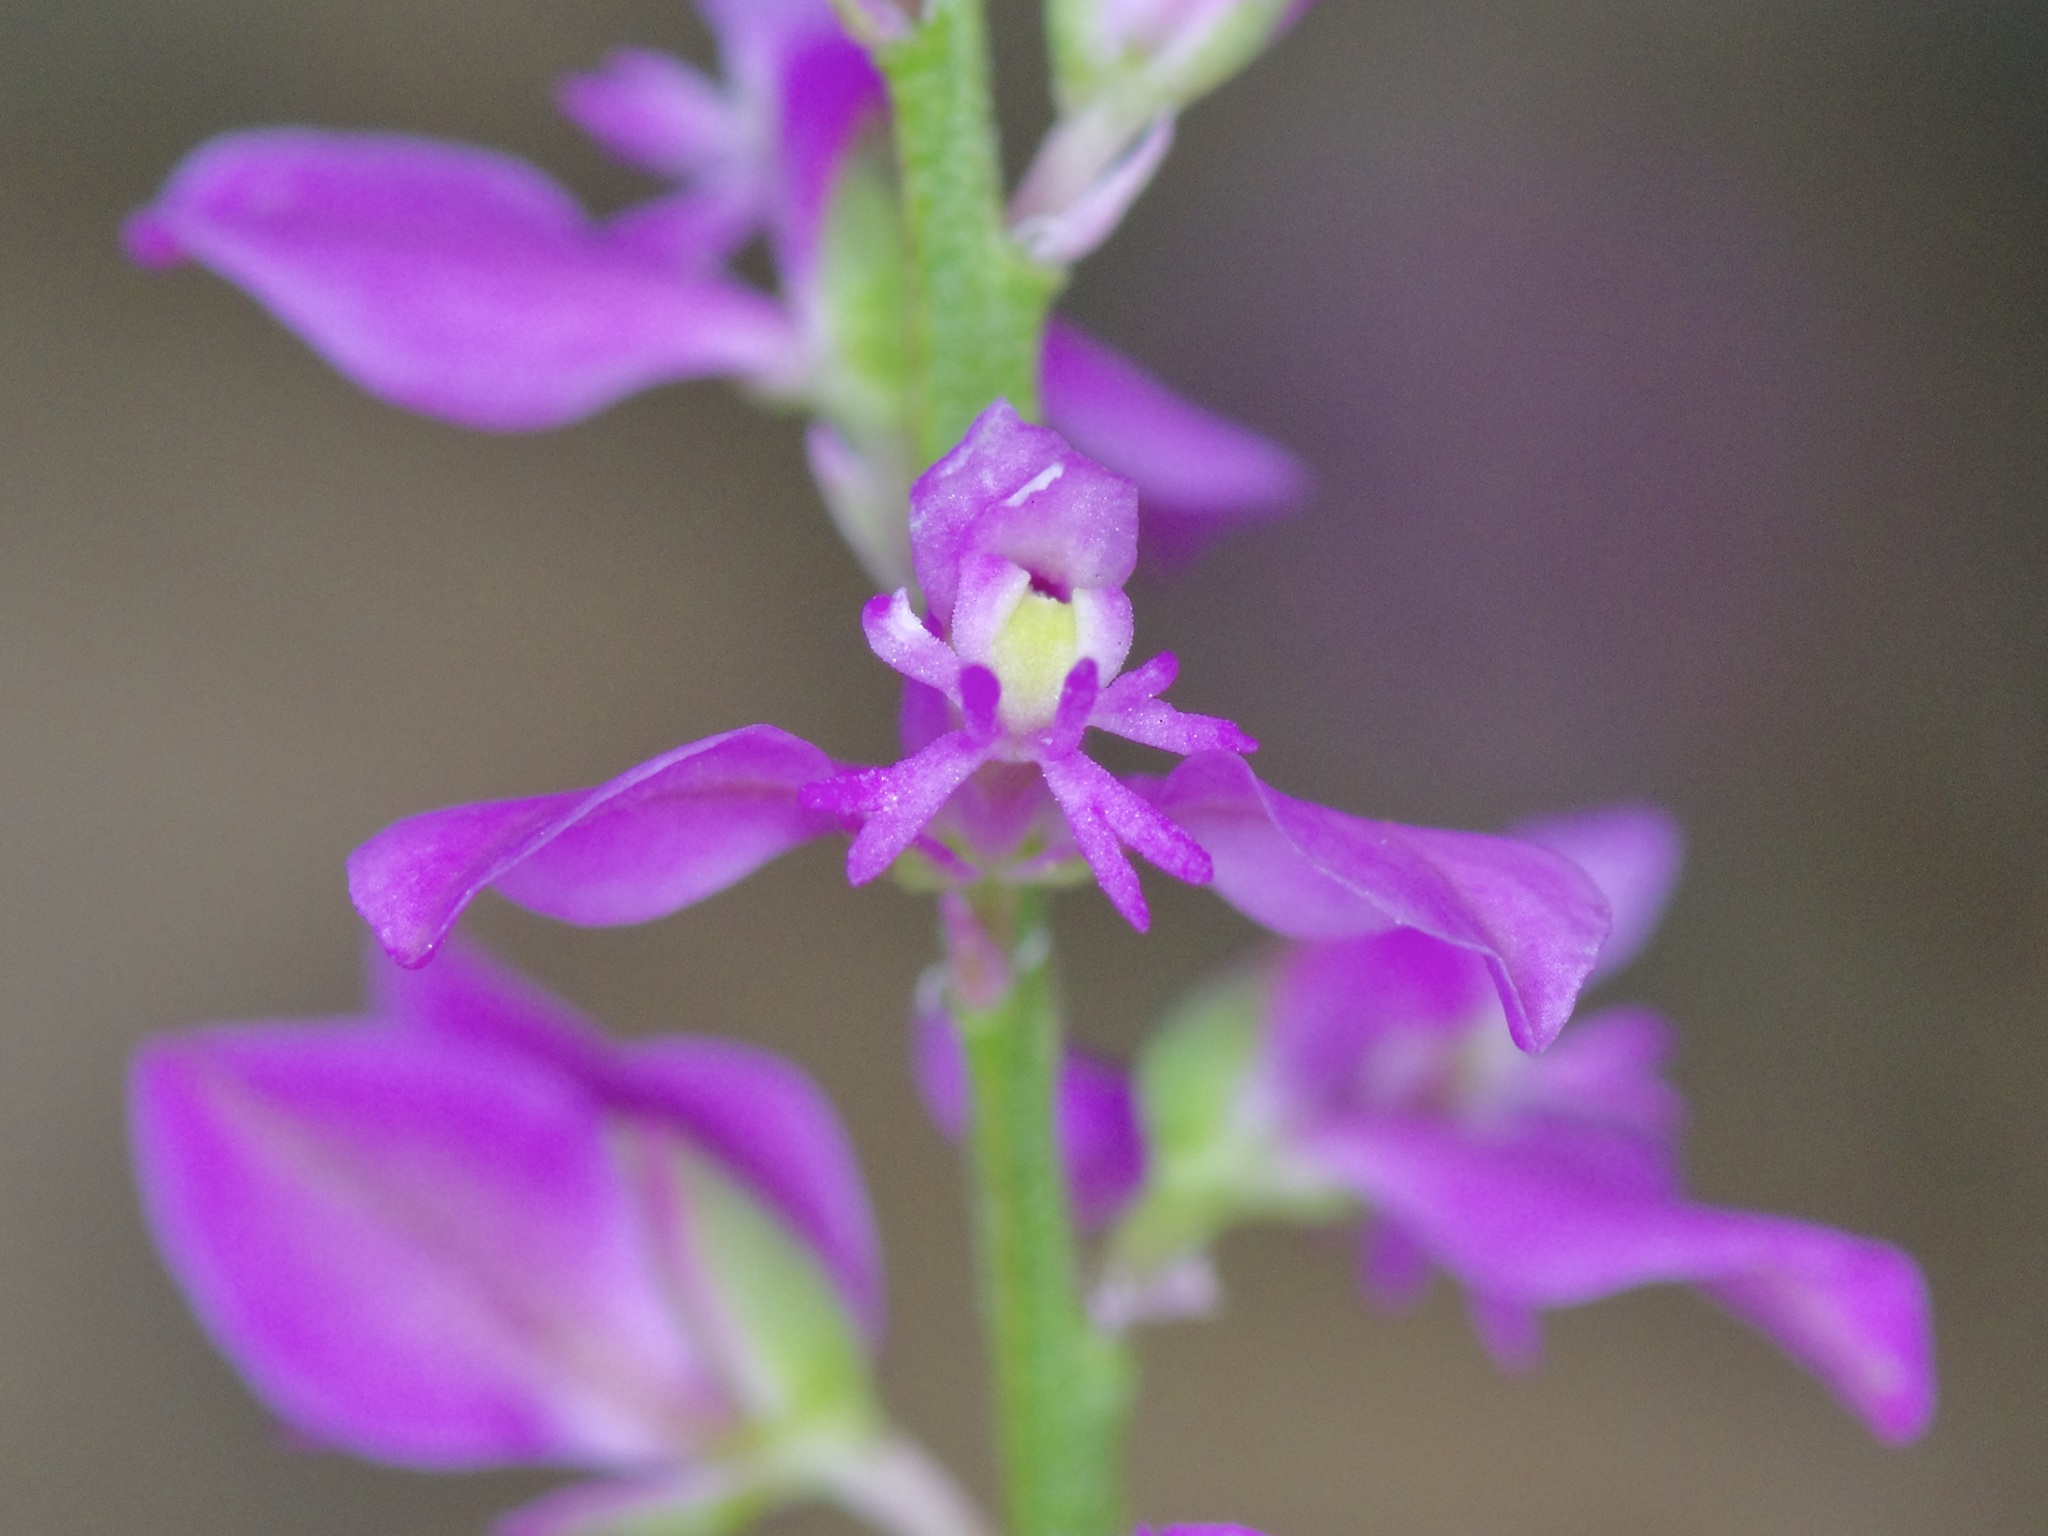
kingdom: Plantae
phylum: Tracheophyta
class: Magnoliopsida
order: Fabales
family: Polygalaceae
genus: Polygala
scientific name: Polygala polygama
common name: Bitter milkwort
